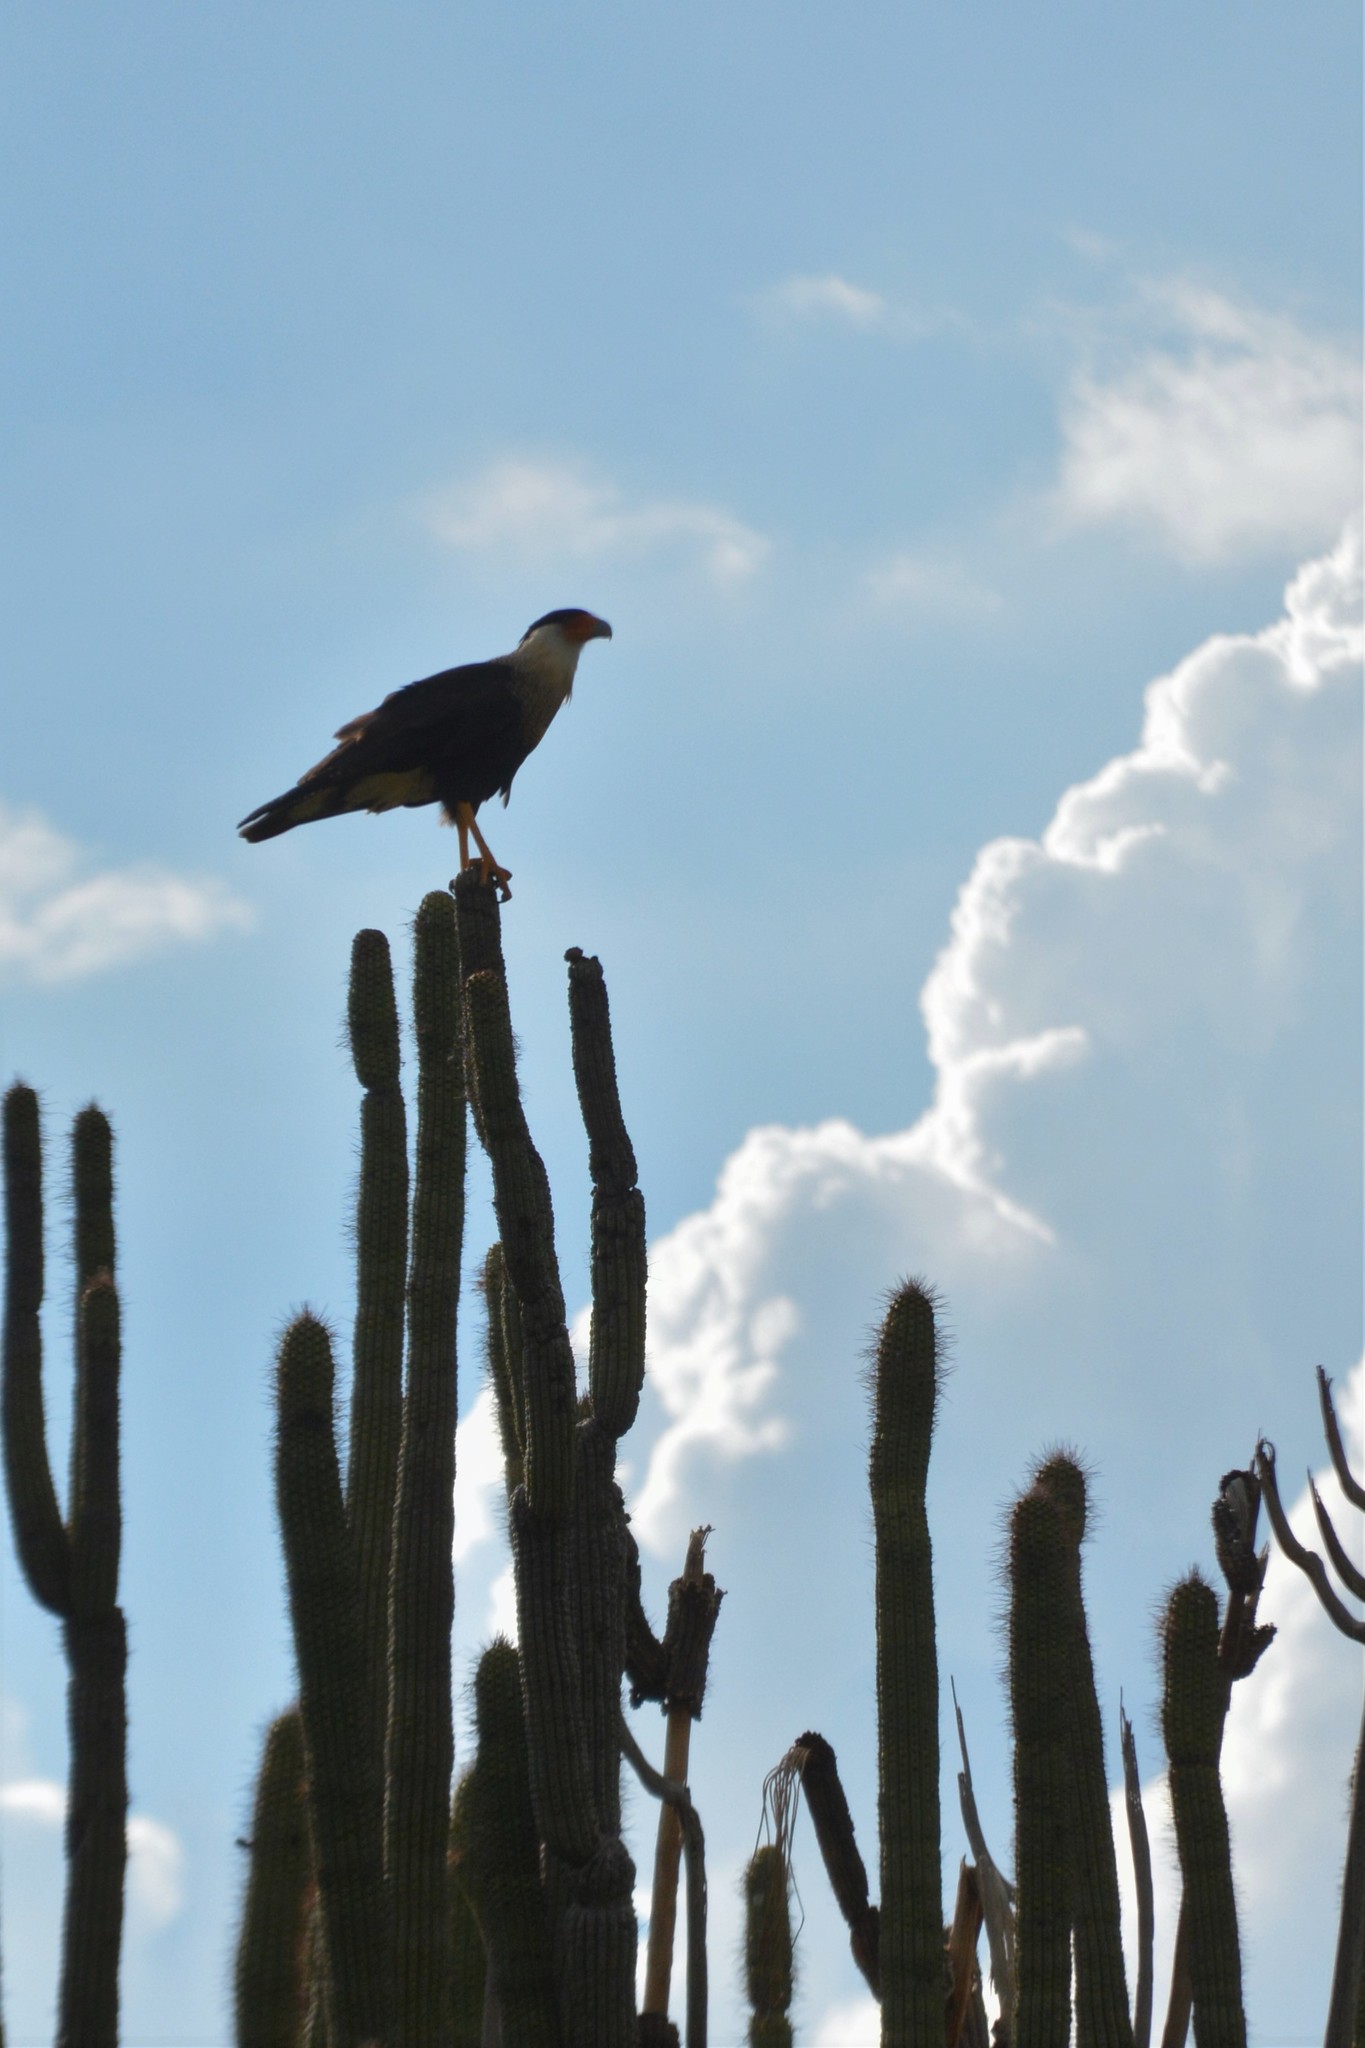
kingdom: Animalia
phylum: Chordata
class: Aves
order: Falconiformes
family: Falconidae
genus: Caracara
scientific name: Caracara plancus
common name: Southern caracara
